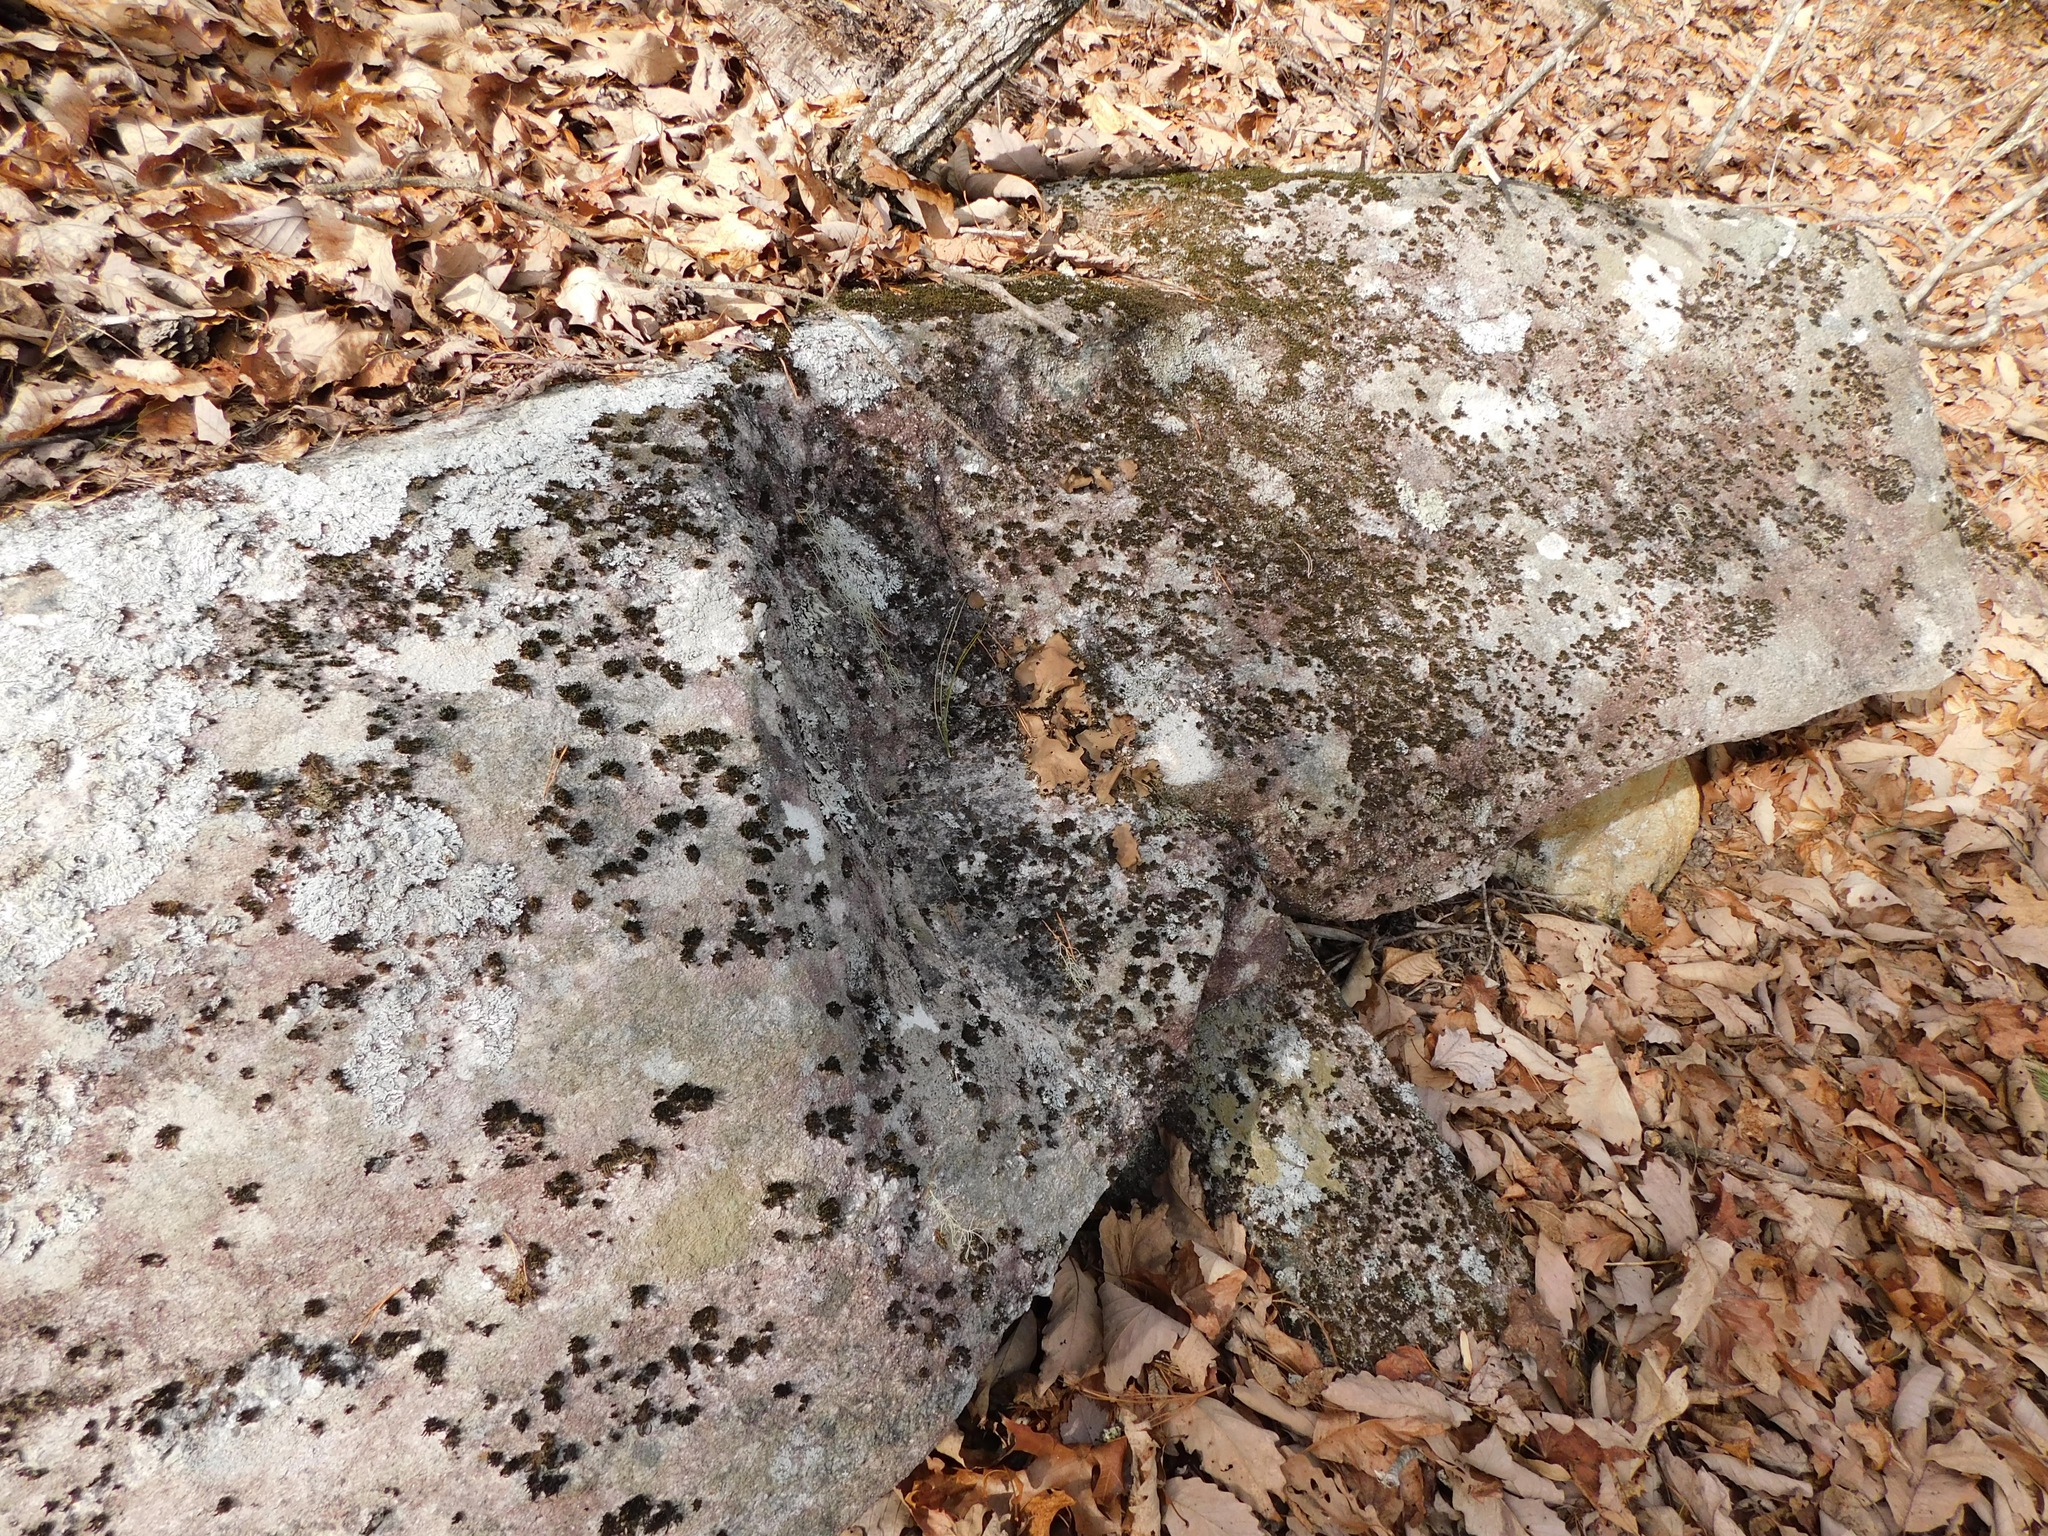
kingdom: Fungi
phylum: Ascomycota
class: Lecanoromycetes
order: Umbilicariales
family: Umbilicariaceae
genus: Umbilicaria
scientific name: Umbilicaria mammulata
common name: Smooth rock tripe
